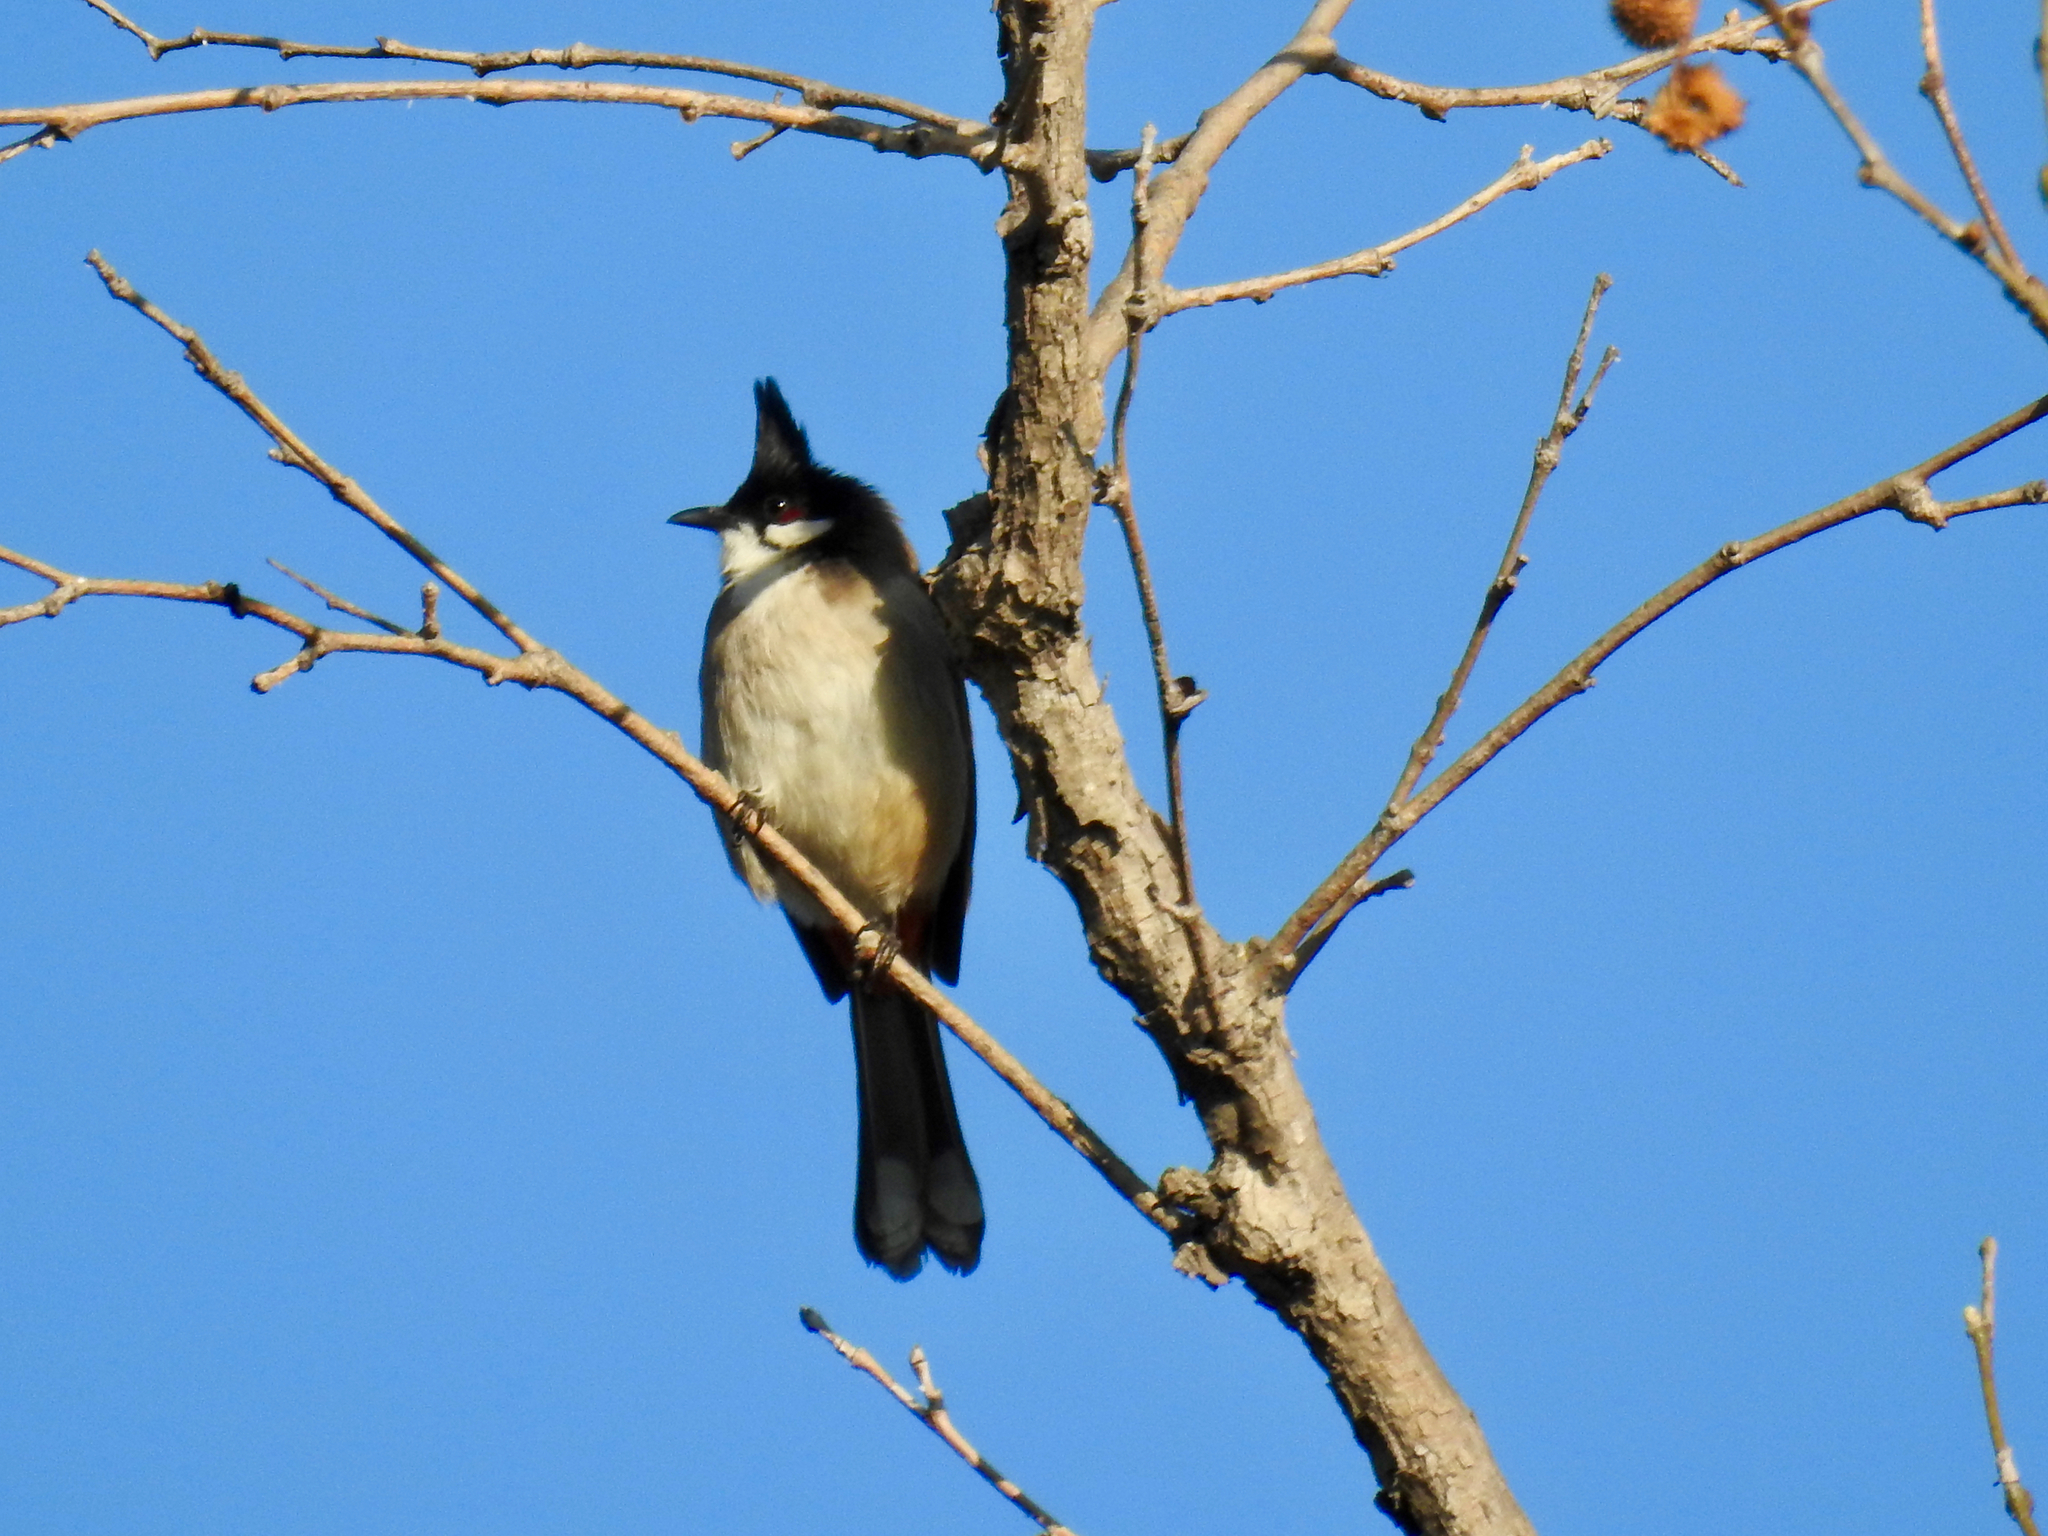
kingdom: Animalia
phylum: Chordata
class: Aves
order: Passeriformes
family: Pycnonotidae
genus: Pycnonotus
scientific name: Pycnonotus jocosus
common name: Red-whiskered bulbul
